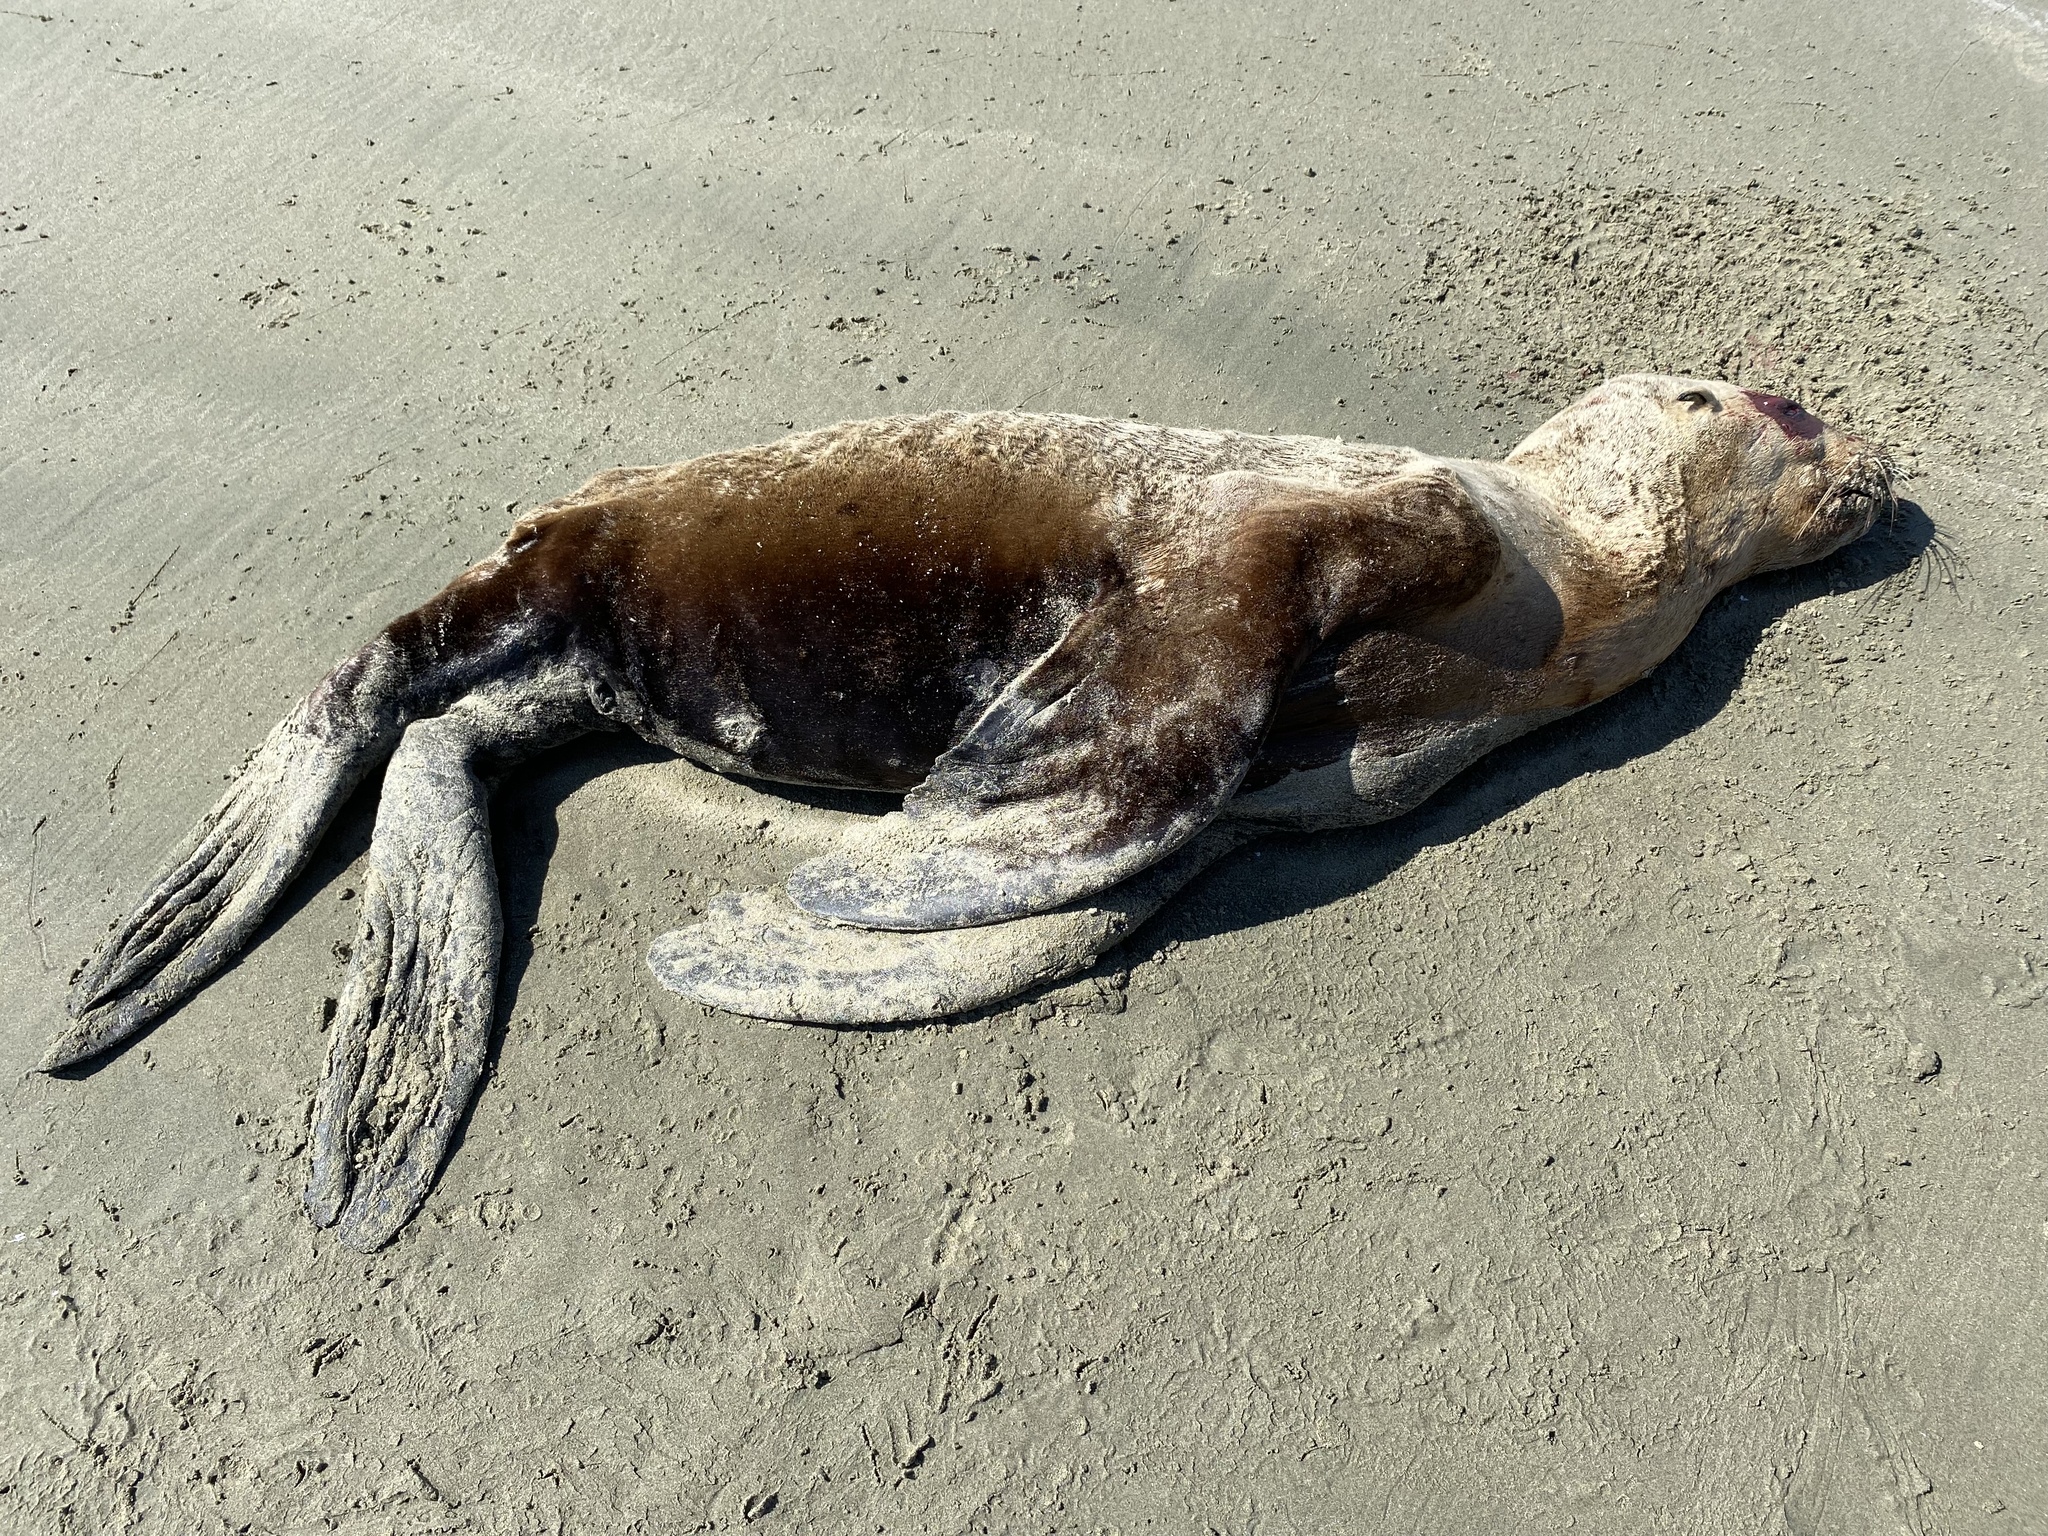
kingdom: Animalia
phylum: Chordata
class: Mammalia
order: Carnivora
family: Otariidae
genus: Eumetopias
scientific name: Eumetopias jubatus
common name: Steller sea lion
